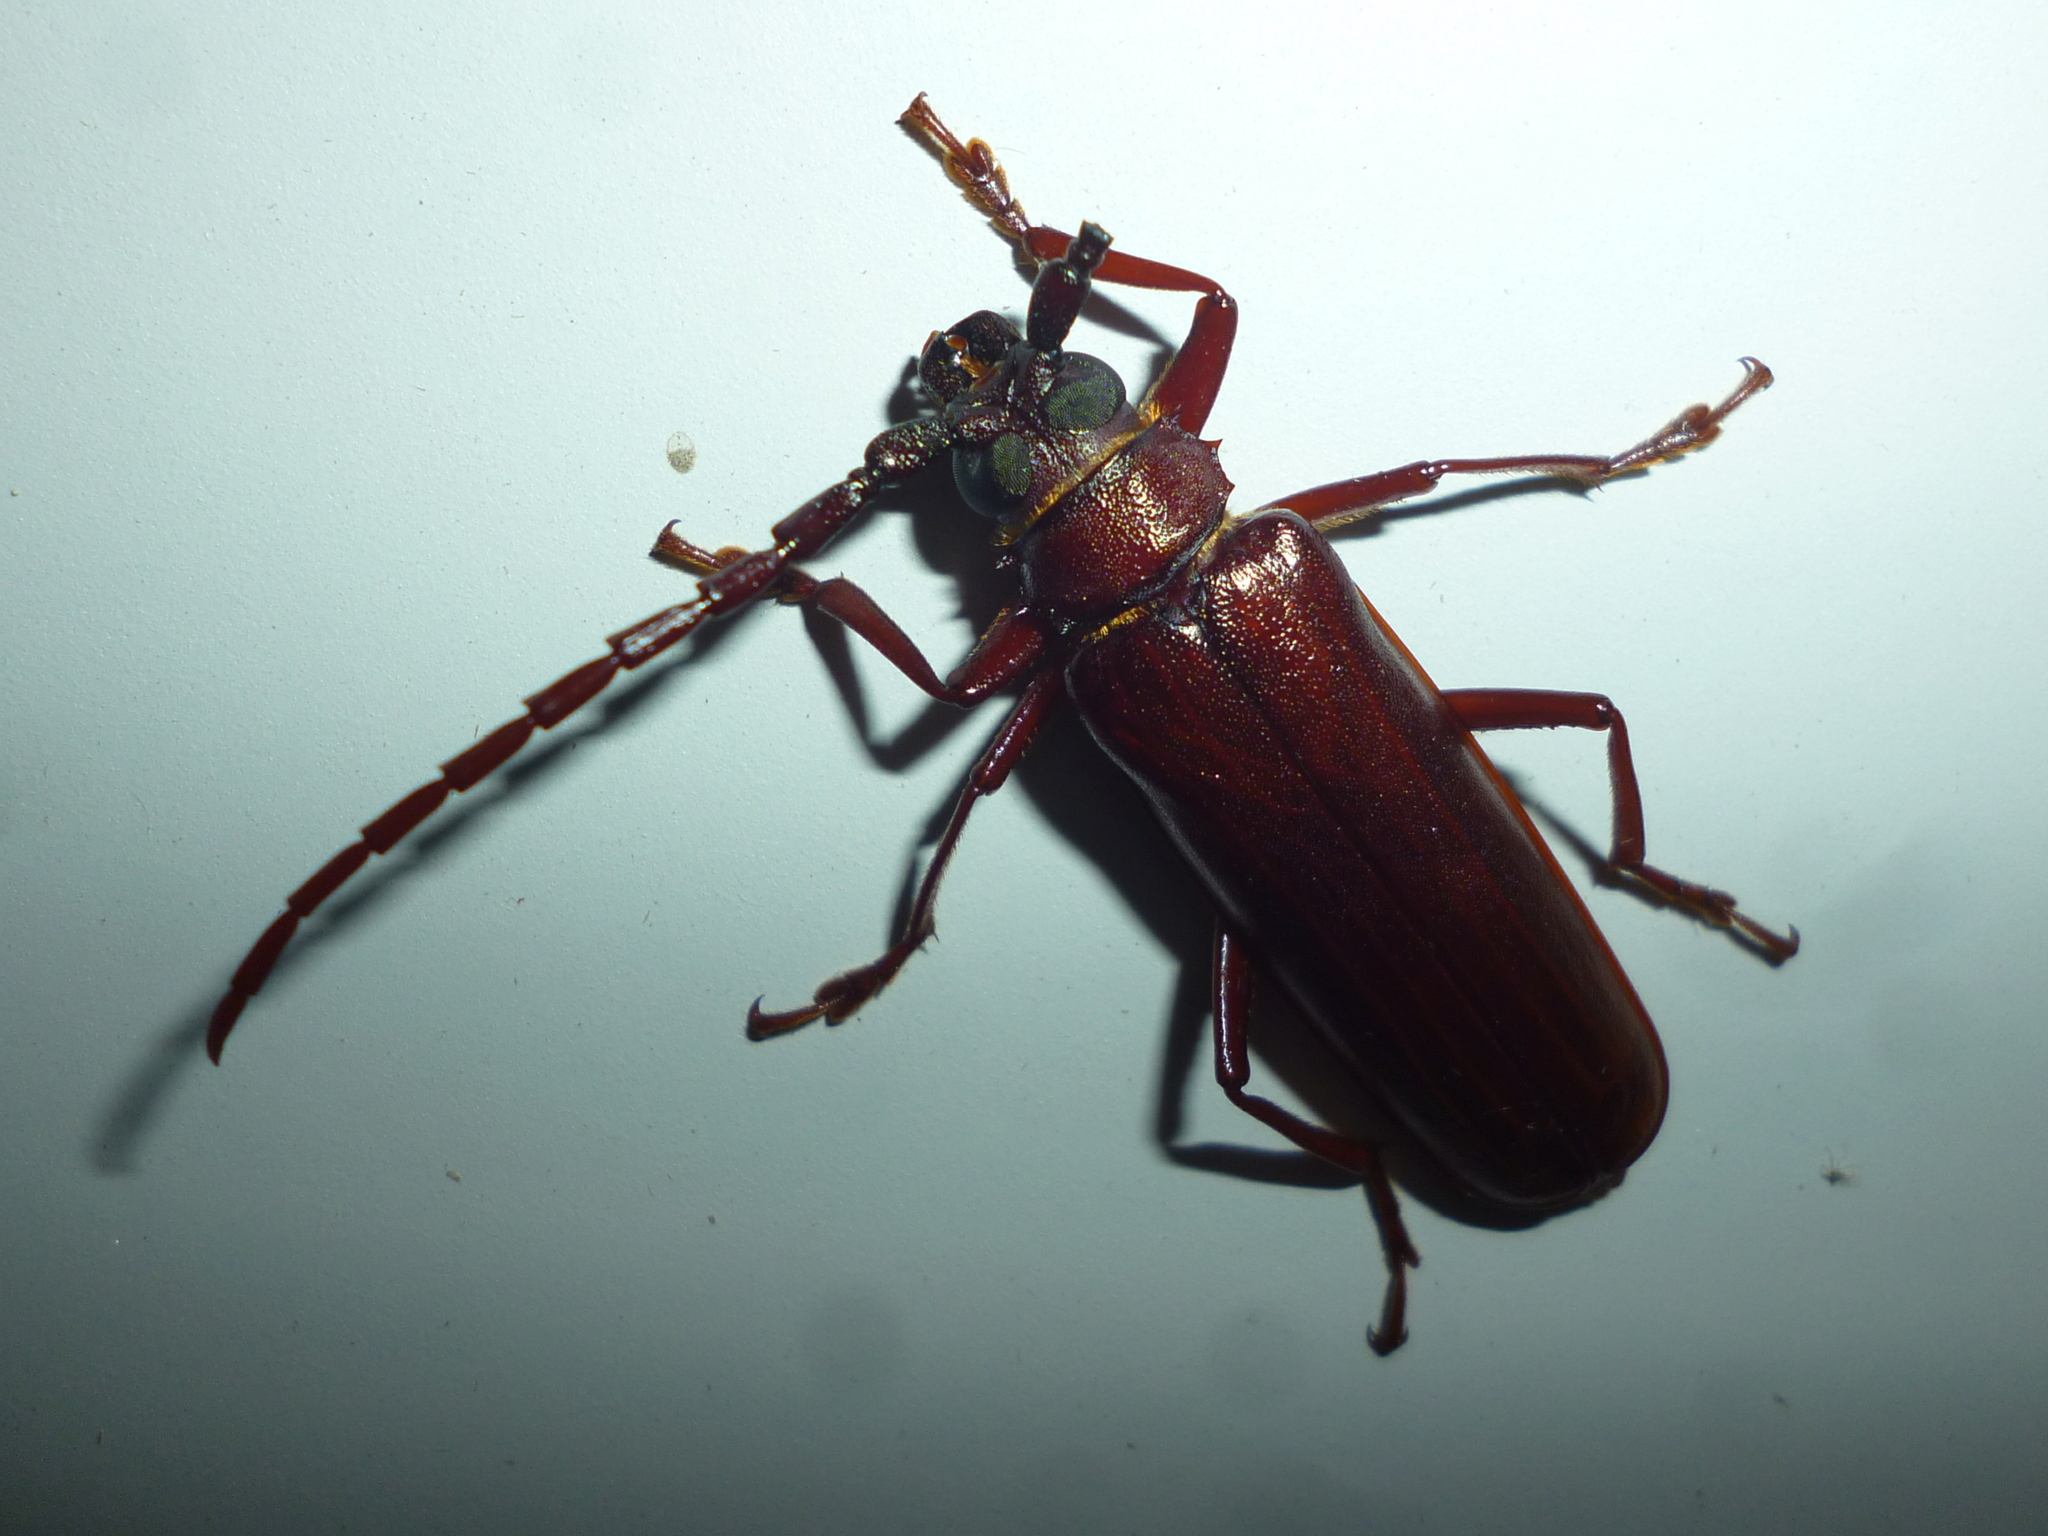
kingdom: Animalia
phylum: Arthropoda
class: Insecta
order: Coleoptera
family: Cerambycidae
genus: Orthosoma
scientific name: Orthosoma brunneum
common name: Brown prionid beetle
